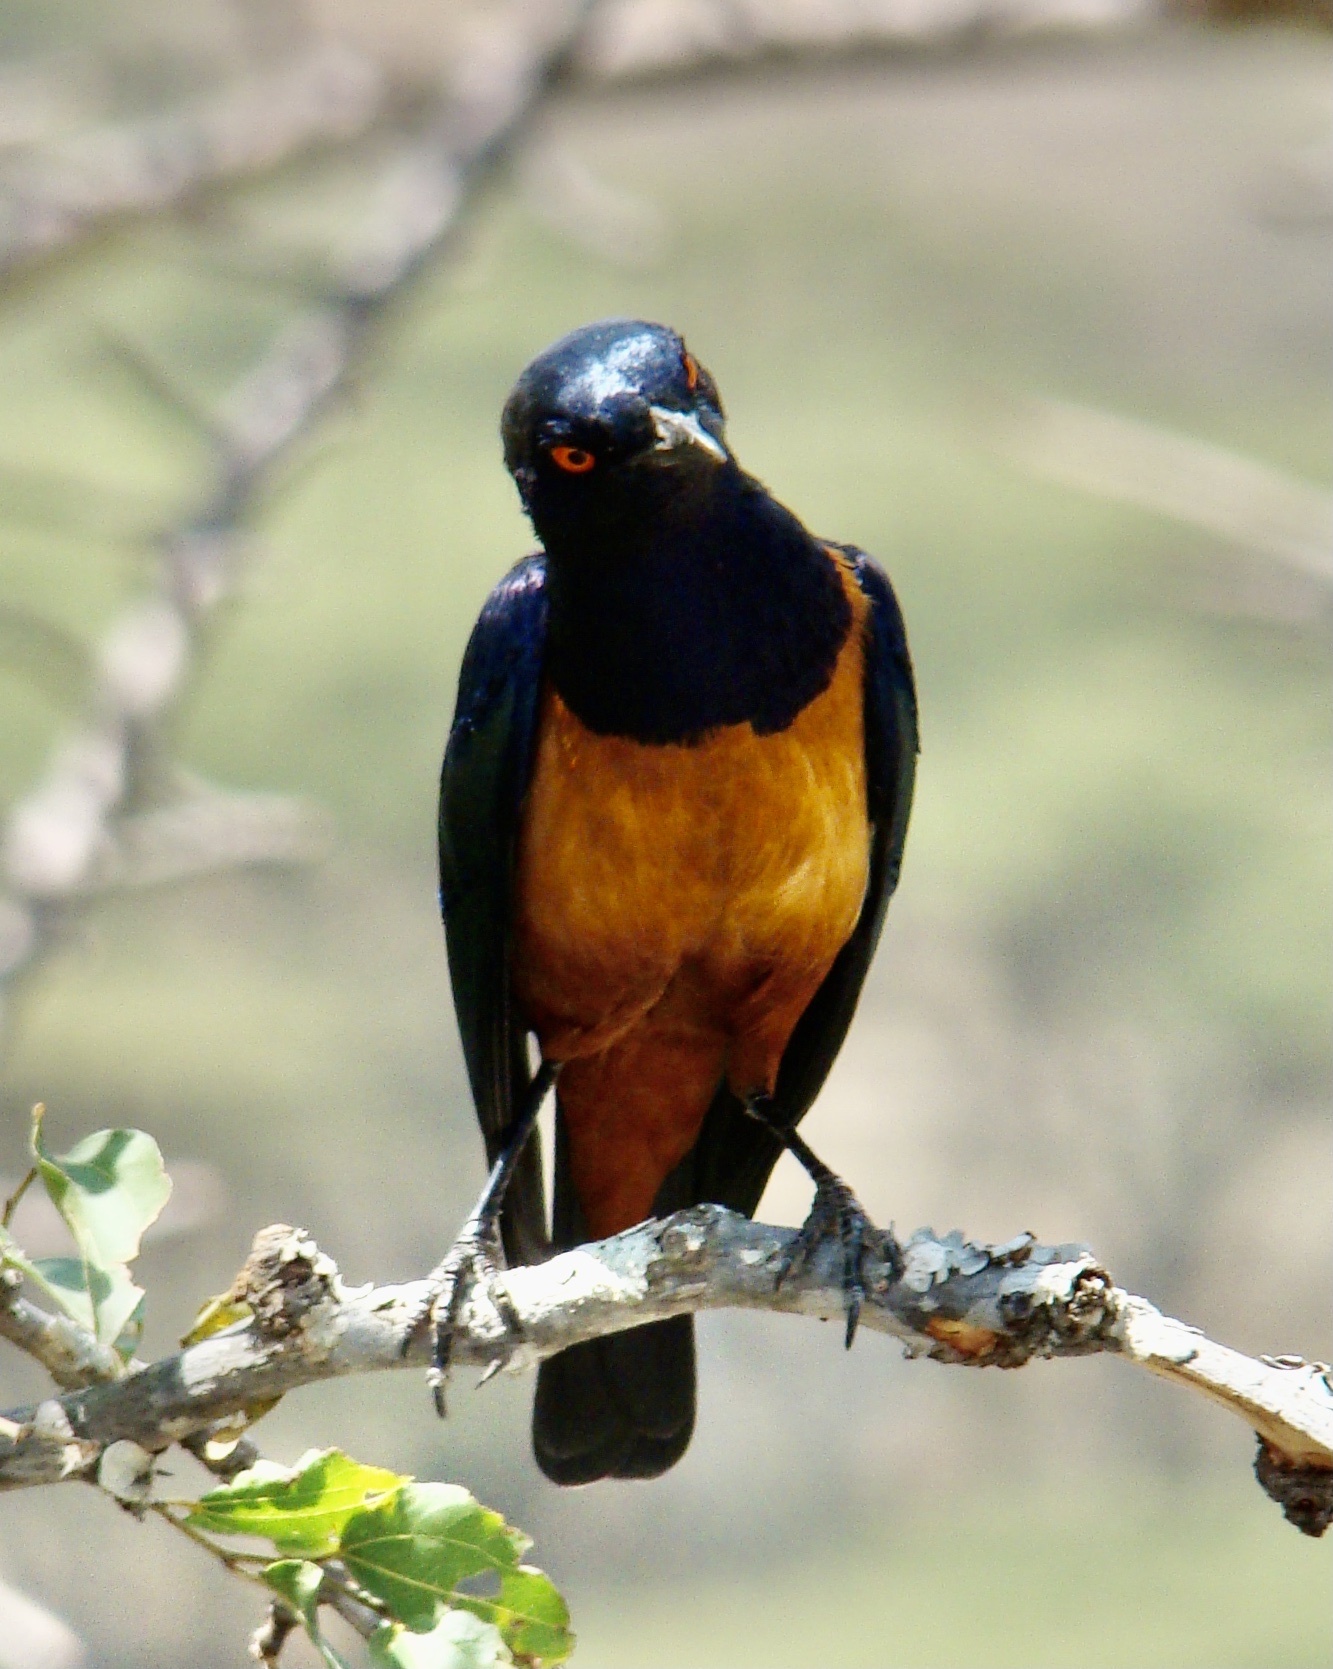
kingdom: Animalia
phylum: Chordata
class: Aves
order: Passeriformes
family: Sturnidae
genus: Lamprotornis
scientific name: Lamprotornis hildebrandti
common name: Hildebrandt's starling
